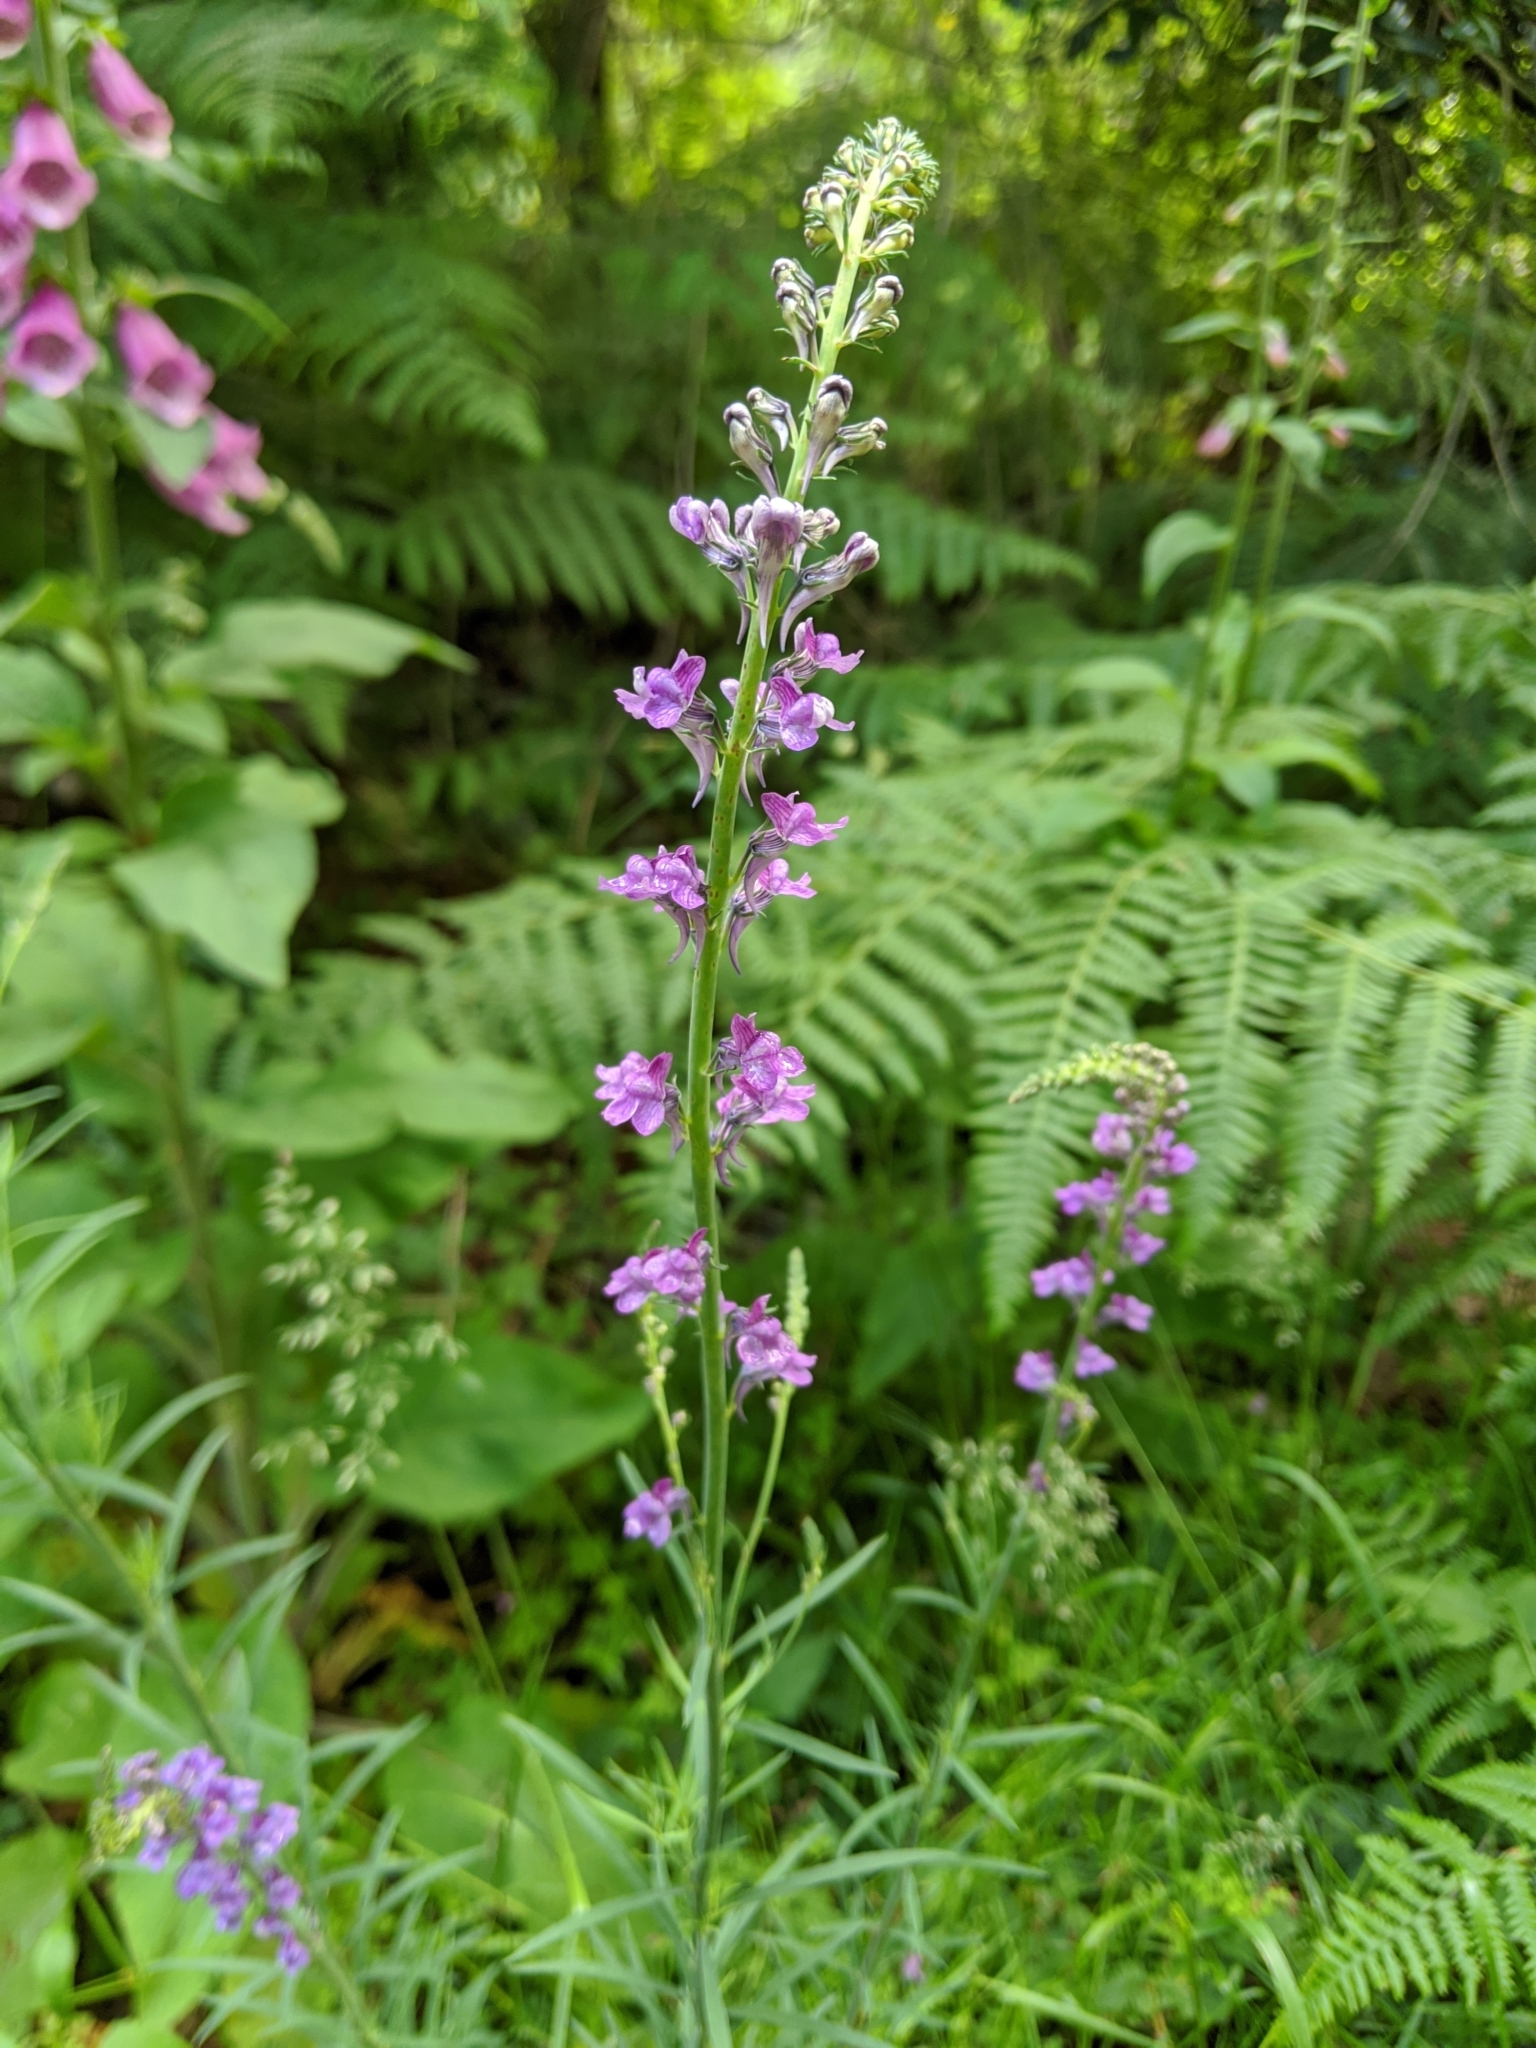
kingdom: Plantae
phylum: Tracheophyta
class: Magnoliopsida
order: Lamiales
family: Plantaginaceae
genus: Linaria
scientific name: Linaria purpurea
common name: Purple toadflax
